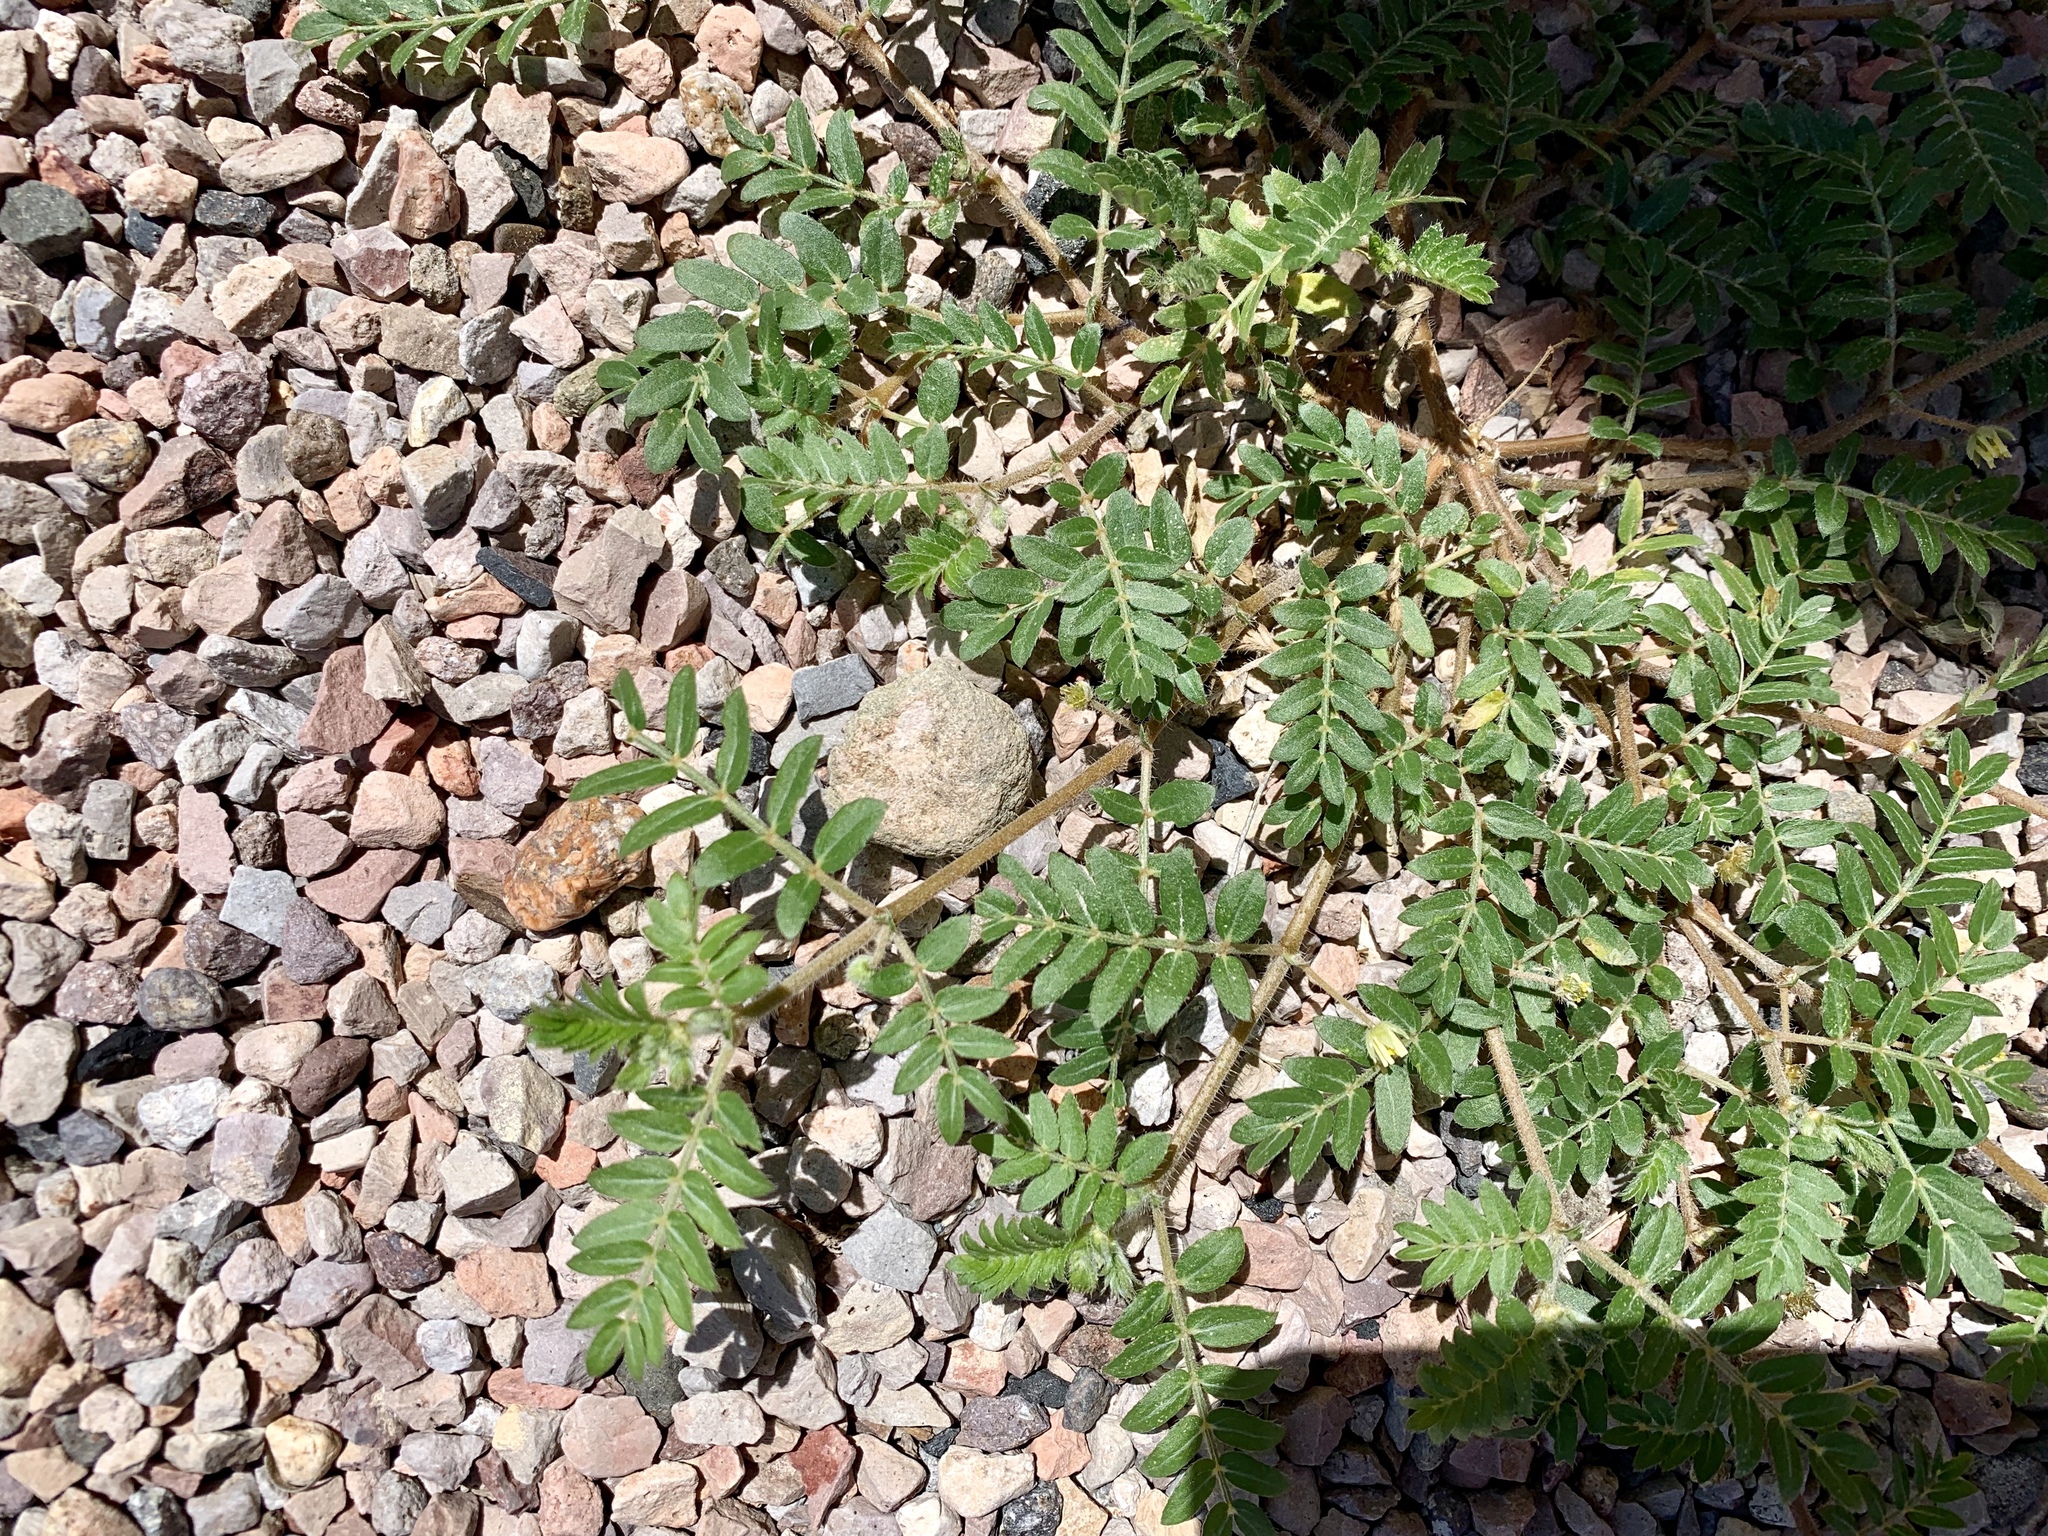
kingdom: Plantae
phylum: Tracheophyta
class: Magnoliopsida
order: Zygophyllales
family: Zygophyllaceae
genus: Tribulus
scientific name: Tribulus terrestris
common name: Puncturevine
